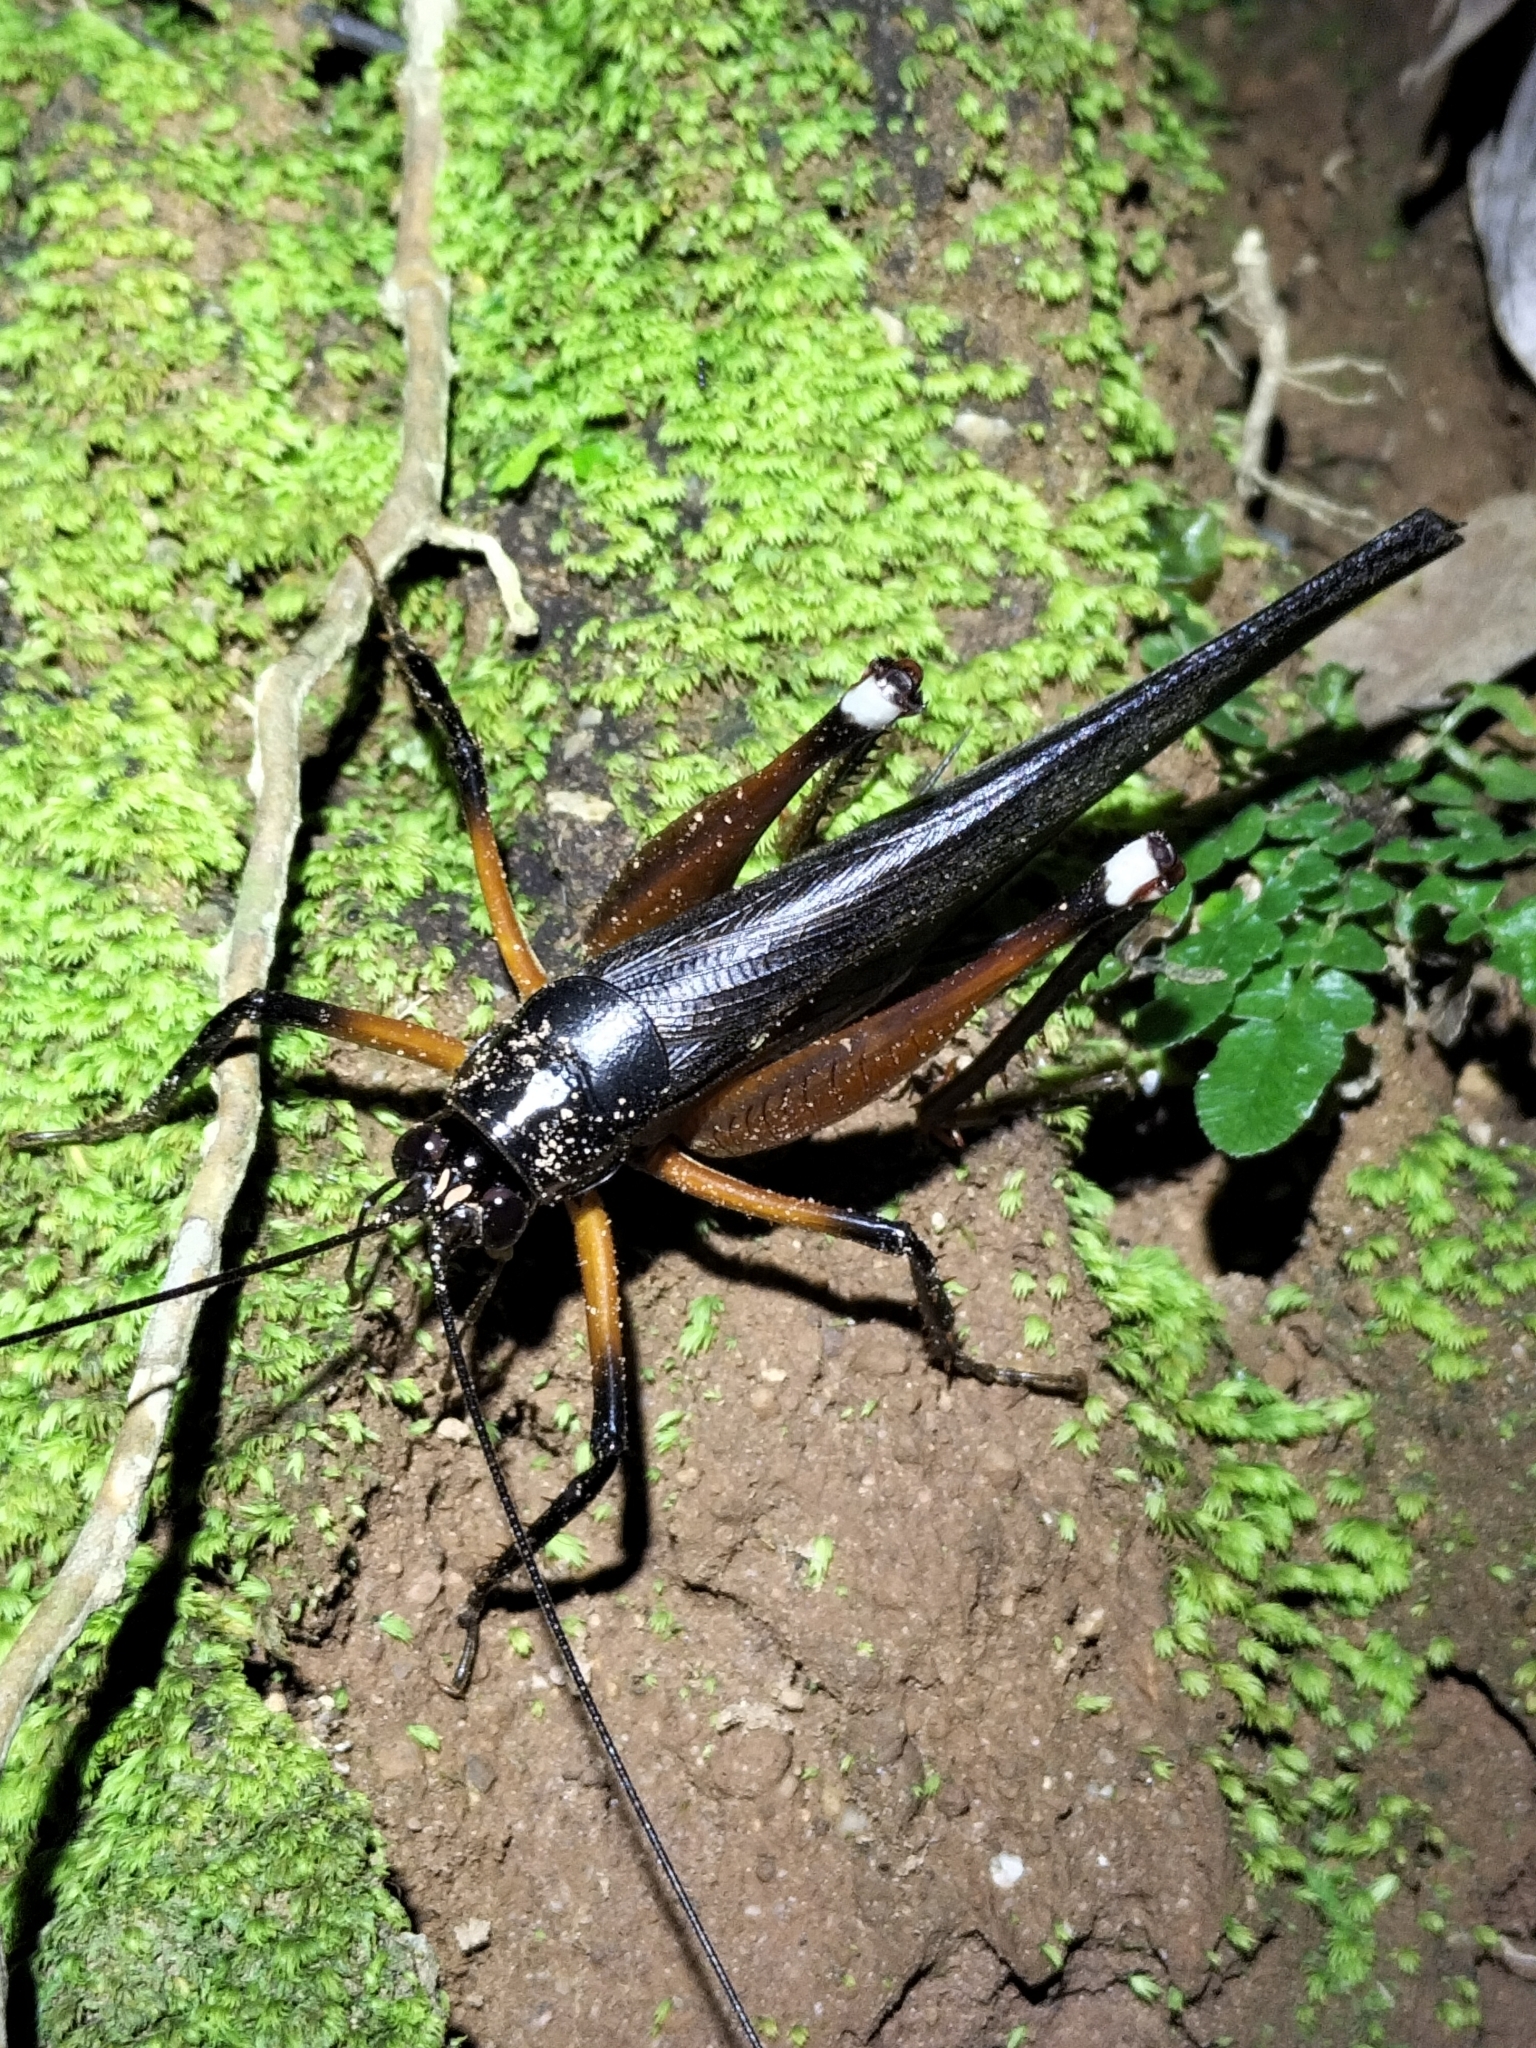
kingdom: Animalia
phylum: Arthropoda
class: Insecta
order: Orthoptera
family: Anostostomatidae
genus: Exogryllacris
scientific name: Exogryllacris ornata
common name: Broad-winged forest cricket
